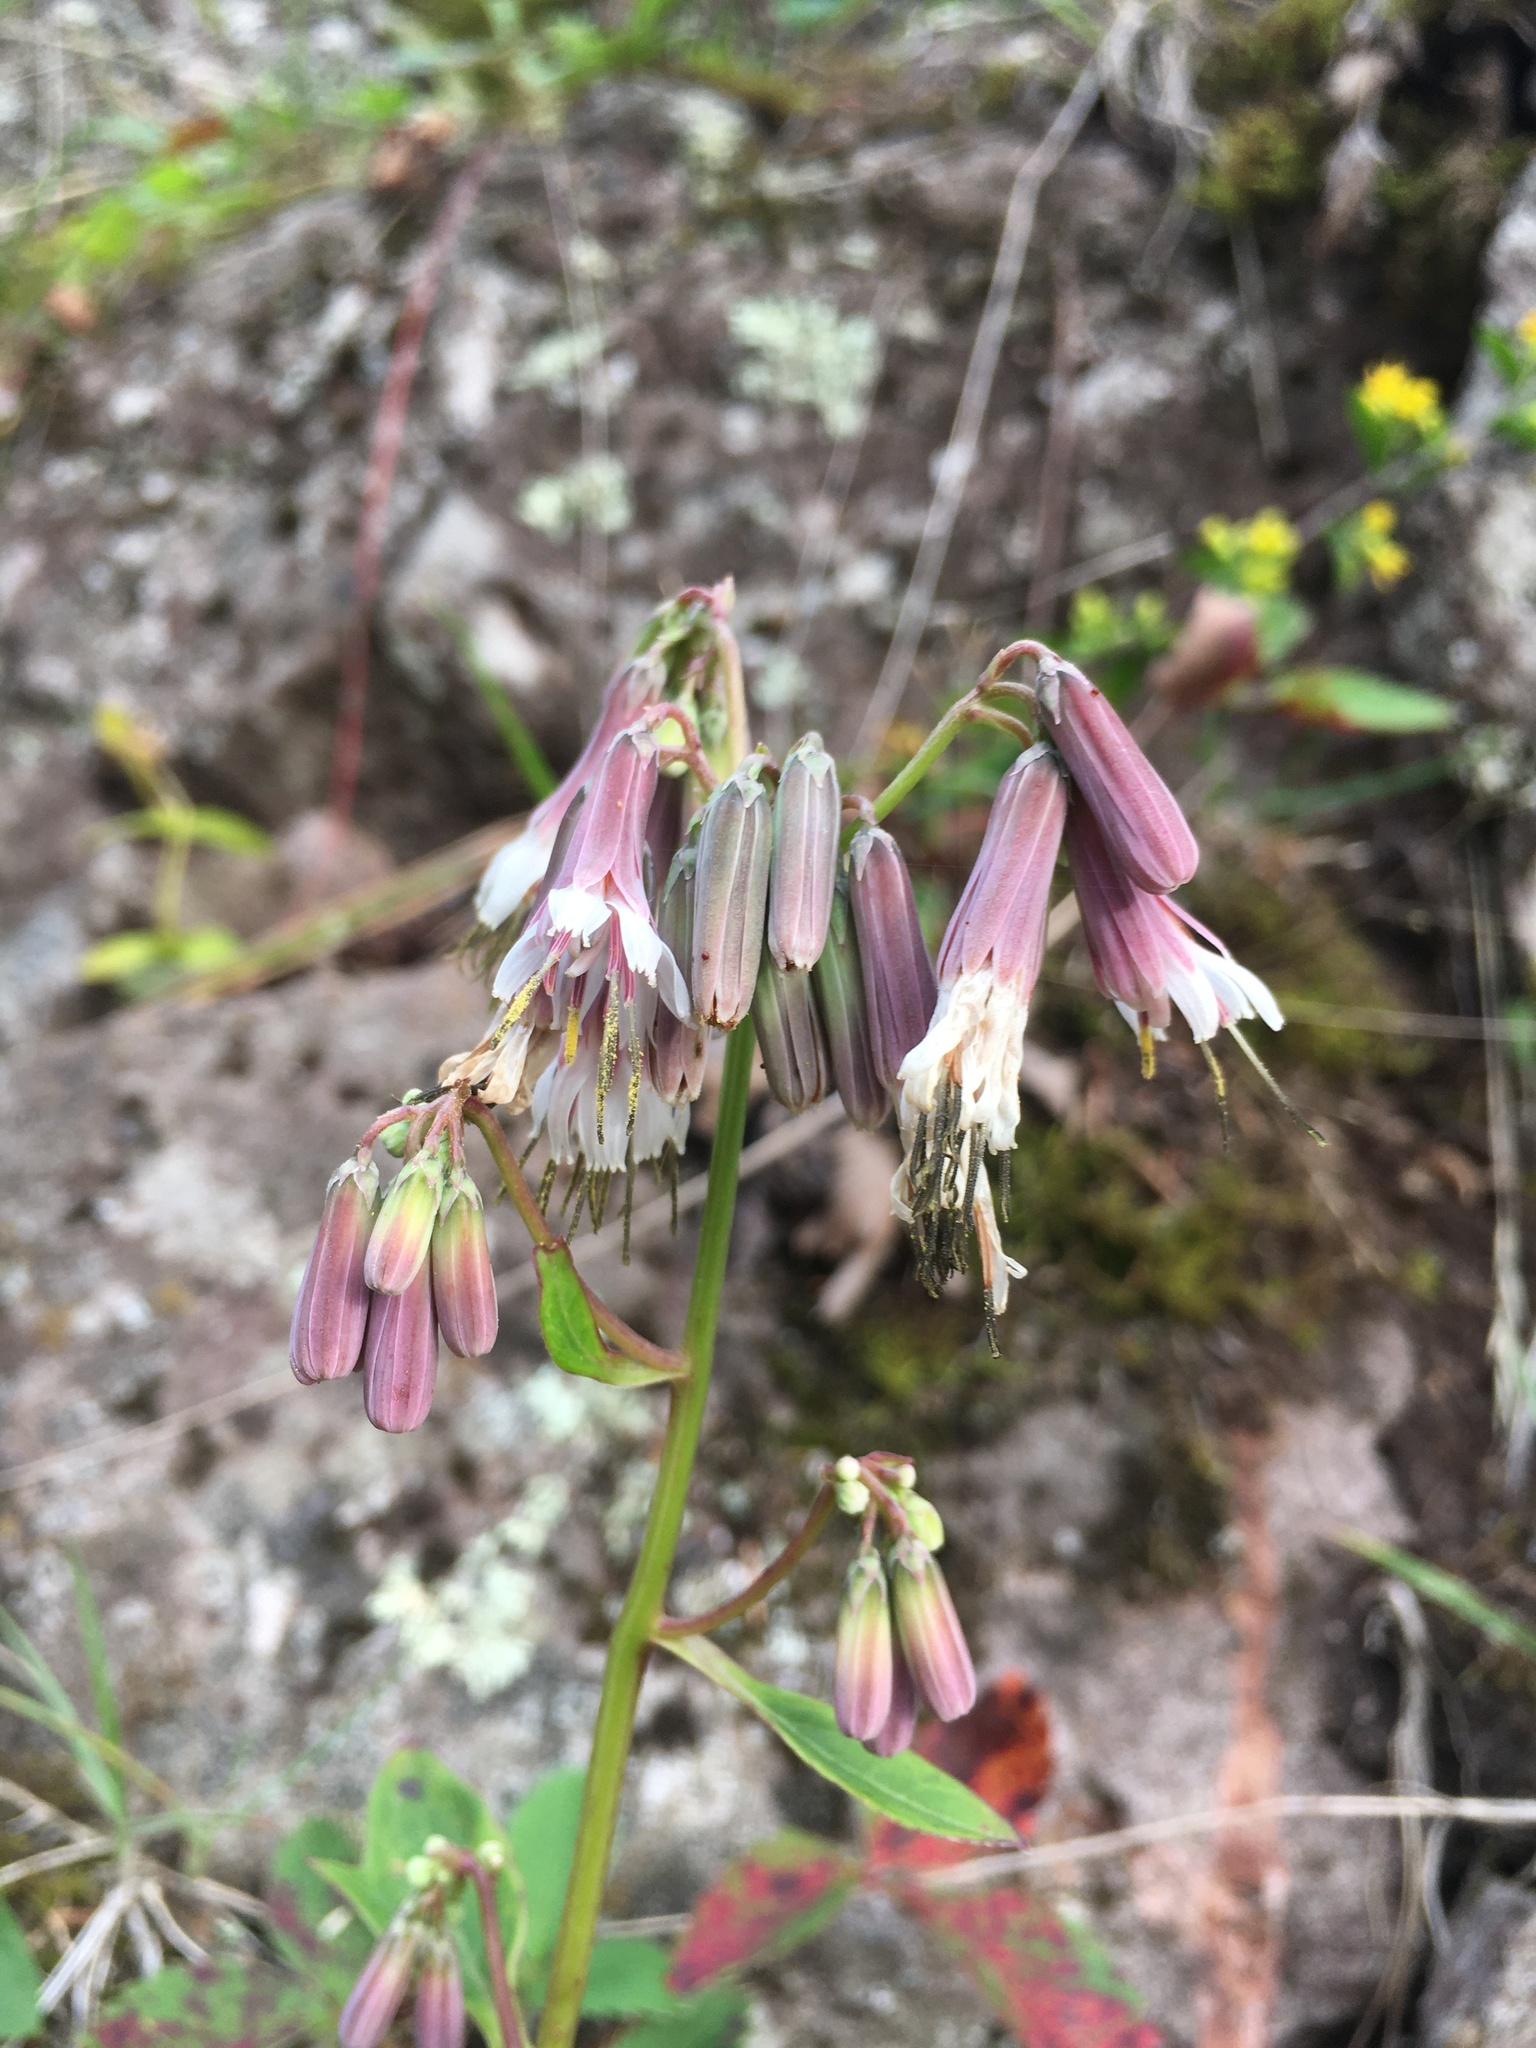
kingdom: Plantae
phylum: Tracheophyta
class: Magnoliopsida
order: Asterales
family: Asteraceae
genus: Nabalus
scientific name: Nabalus albus
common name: White rattlesnakeroot
